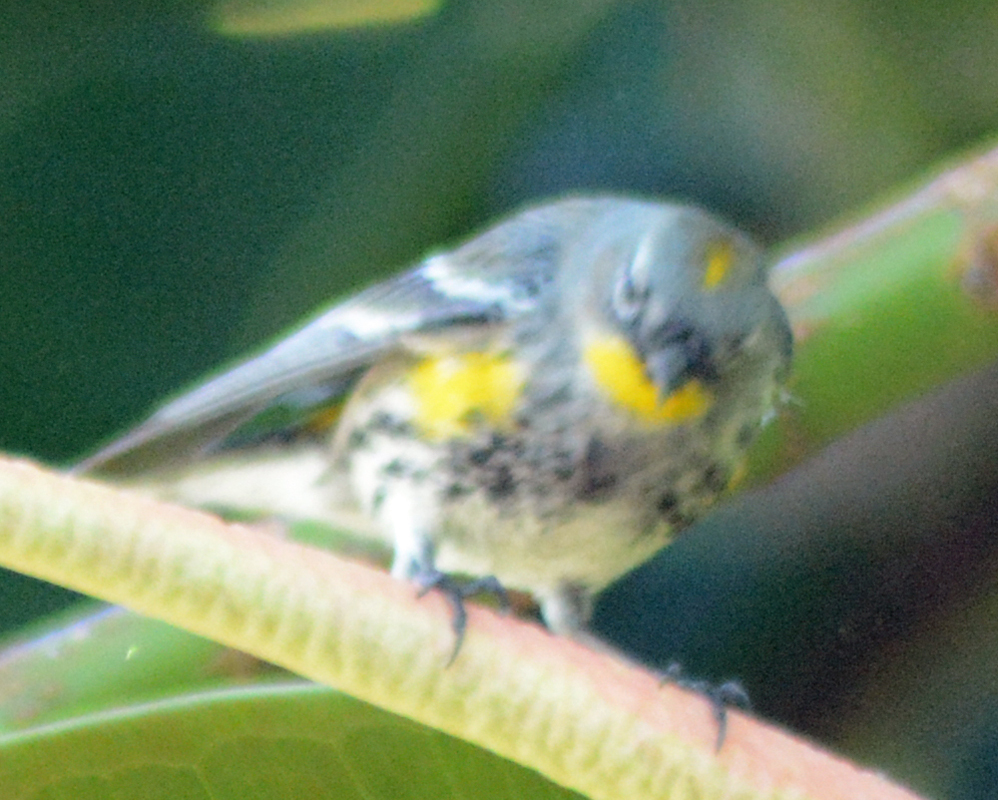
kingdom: Animalia
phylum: Chordata
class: Aves
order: Passeriformes
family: Parulidae
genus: Setophaga
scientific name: Setophaga coronata
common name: Myrtle warbler
